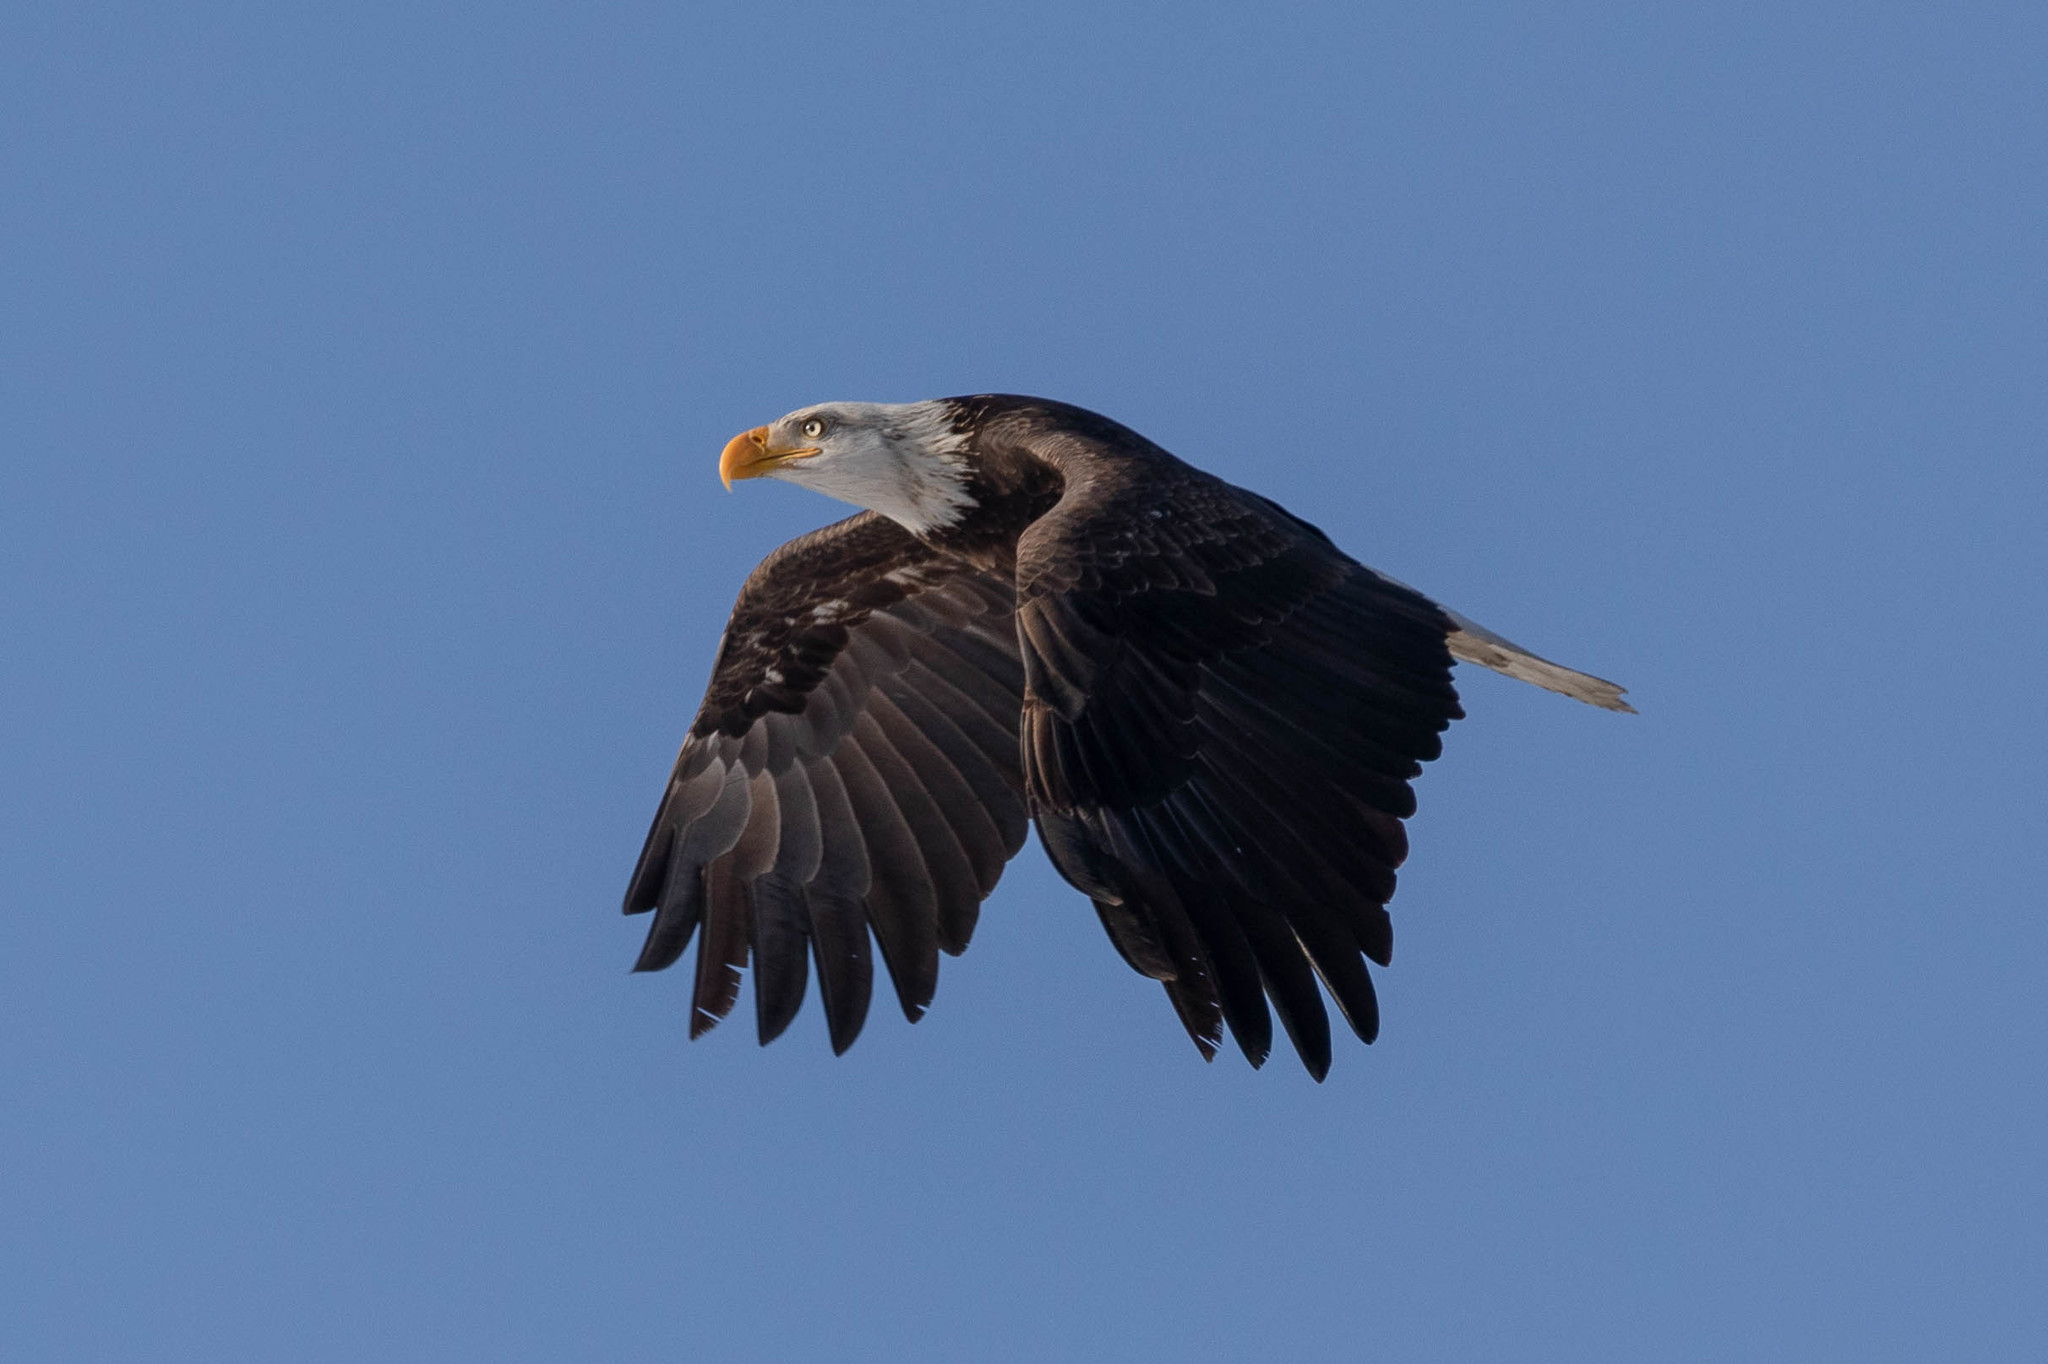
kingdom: Animalia
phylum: Chordata
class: Aves
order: Accipitriformes
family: Accipitridae
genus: Haliaeetus
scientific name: Haliaeetus leucocephalus
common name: Bald eagle
